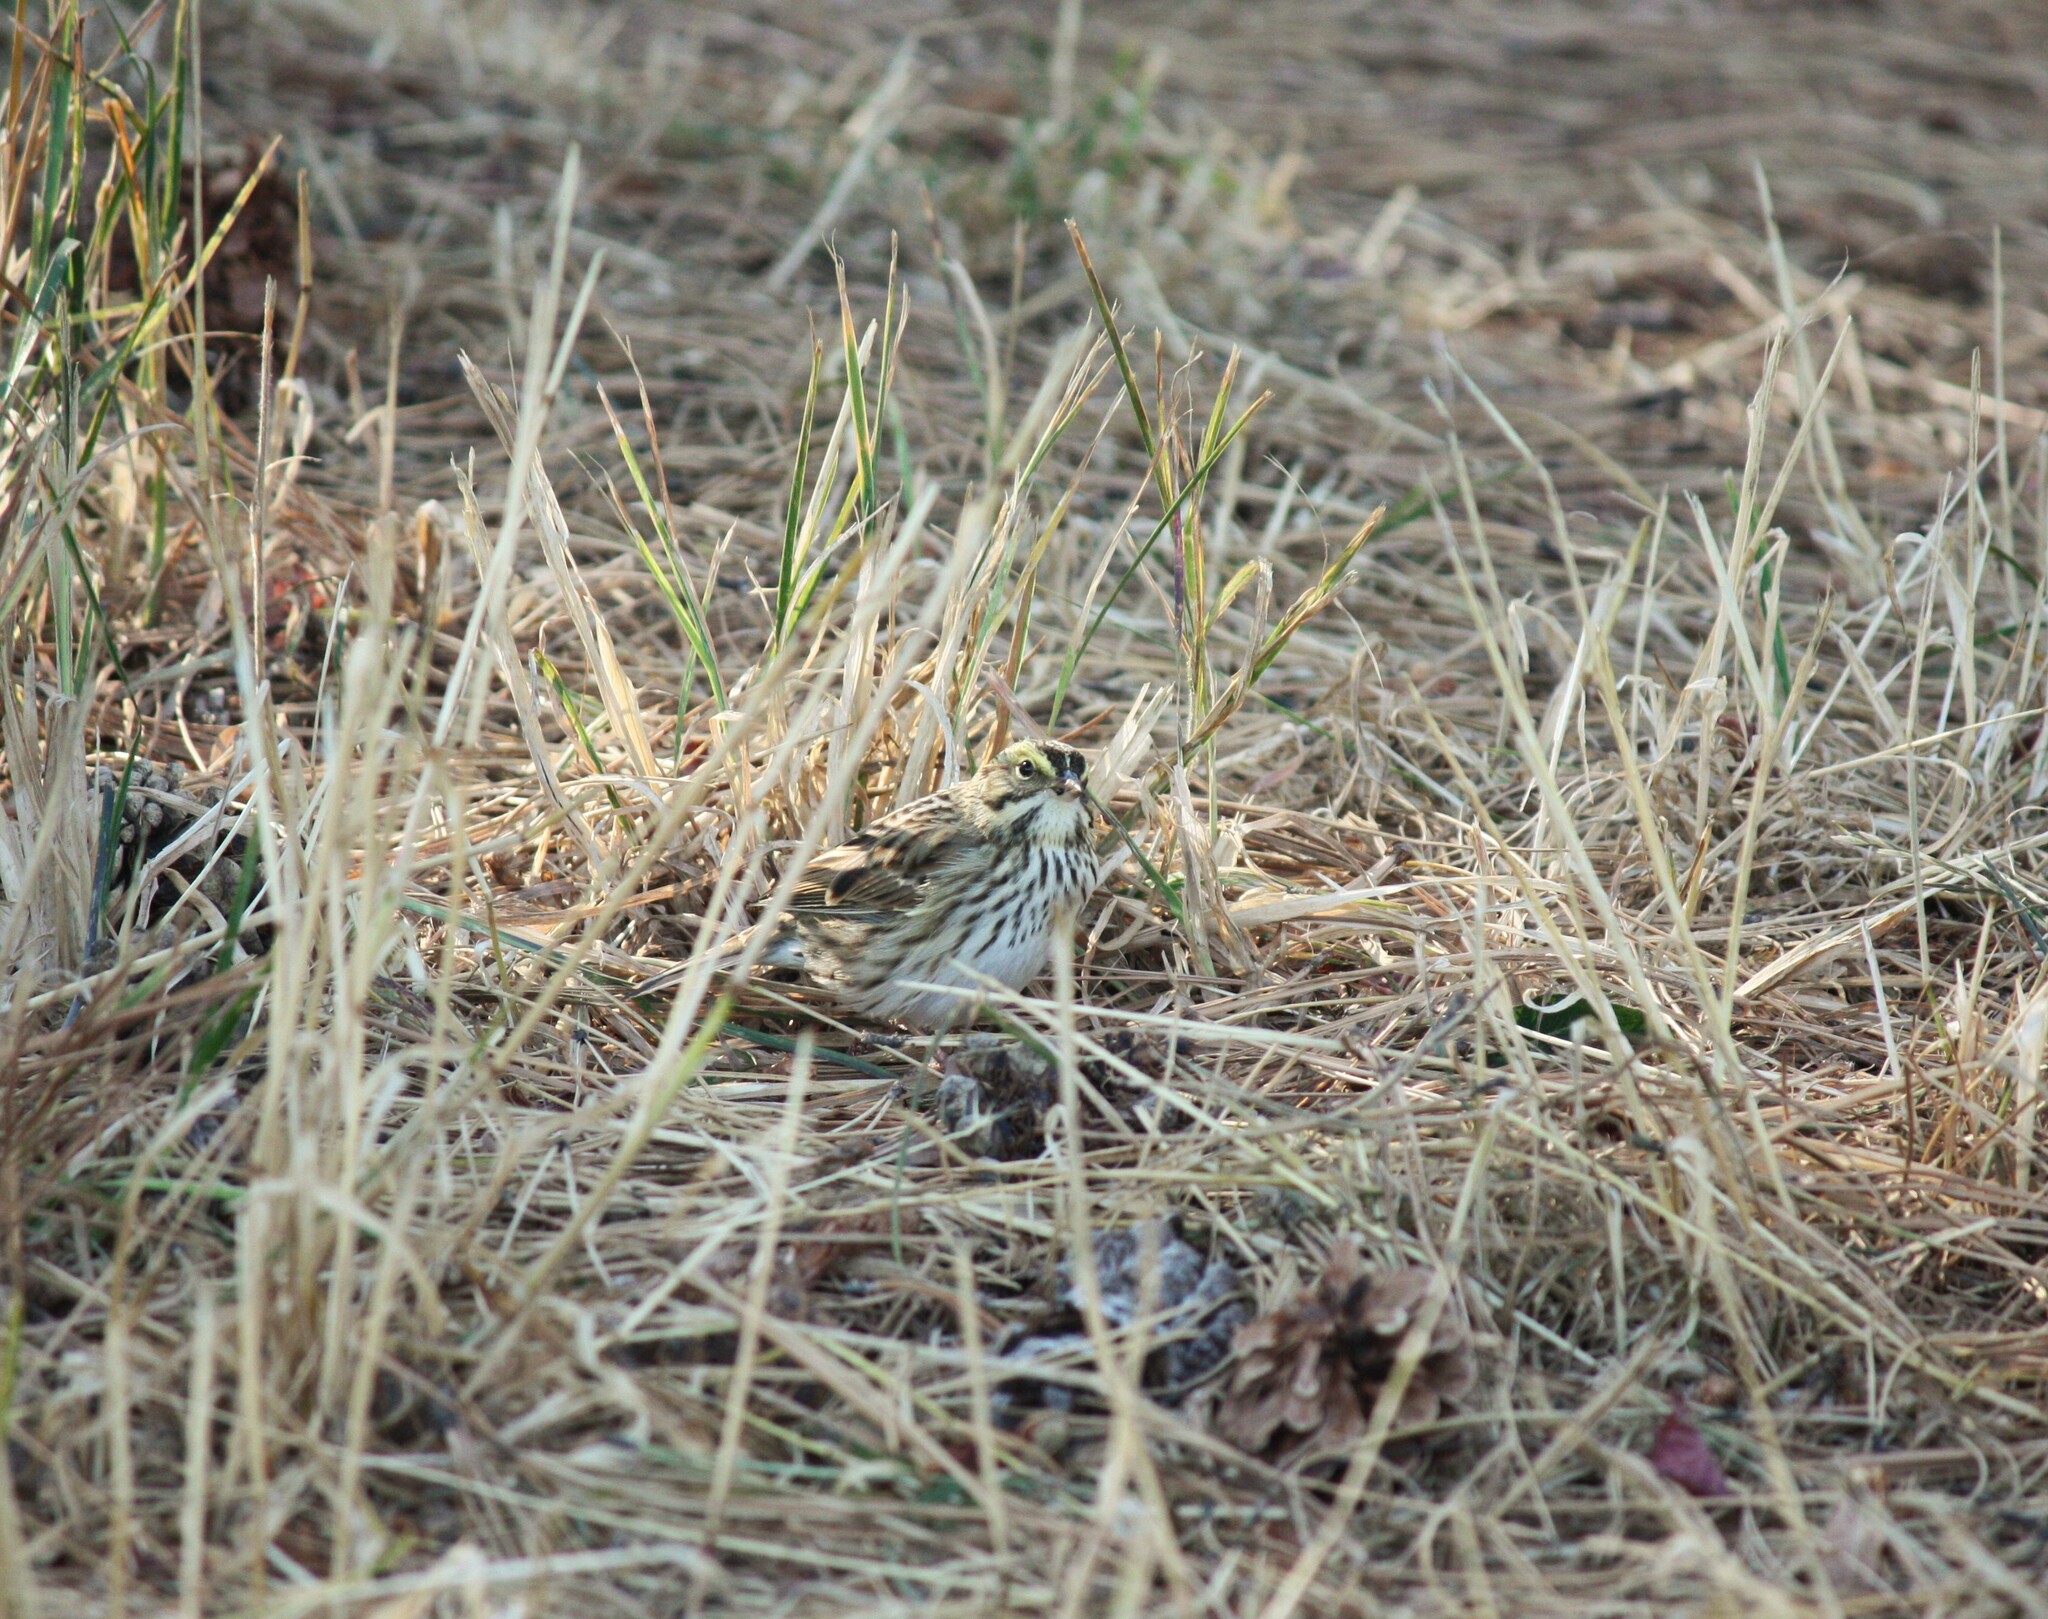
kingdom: Animalia
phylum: Chordata
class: Aves
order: Passeriformes
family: Passerellidae
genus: Passerculus
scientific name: Passerculus sandwichensis
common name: Savannah sparrow
